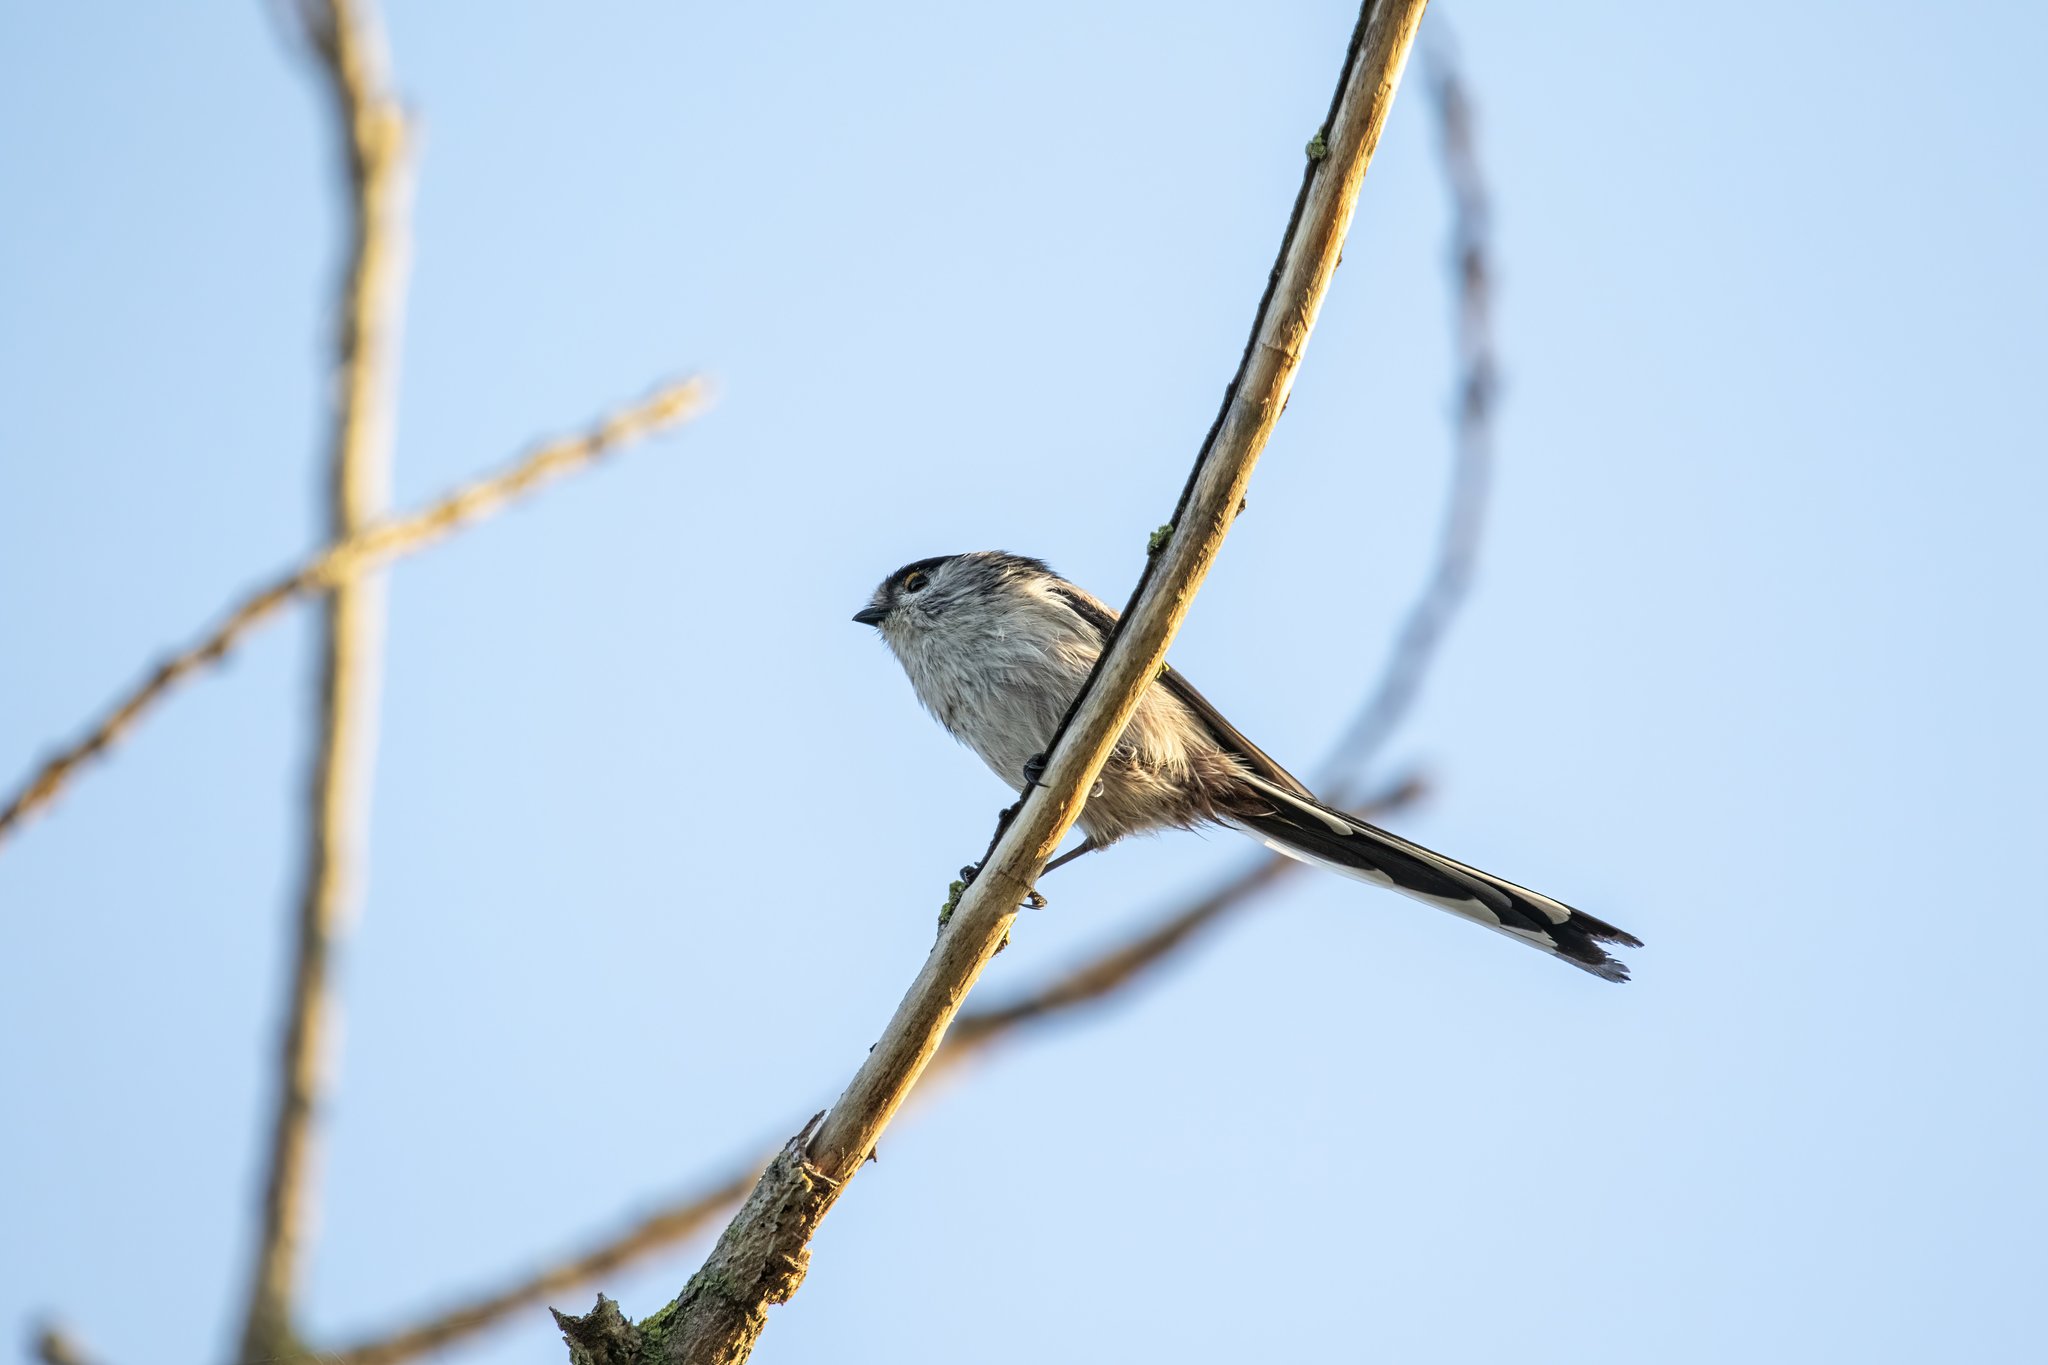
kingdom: Animalia
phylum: Chordata
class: Aves
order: Passeriformes
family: Aegithalidae
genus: Aegithalos
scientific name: Aegithalos caudatus
